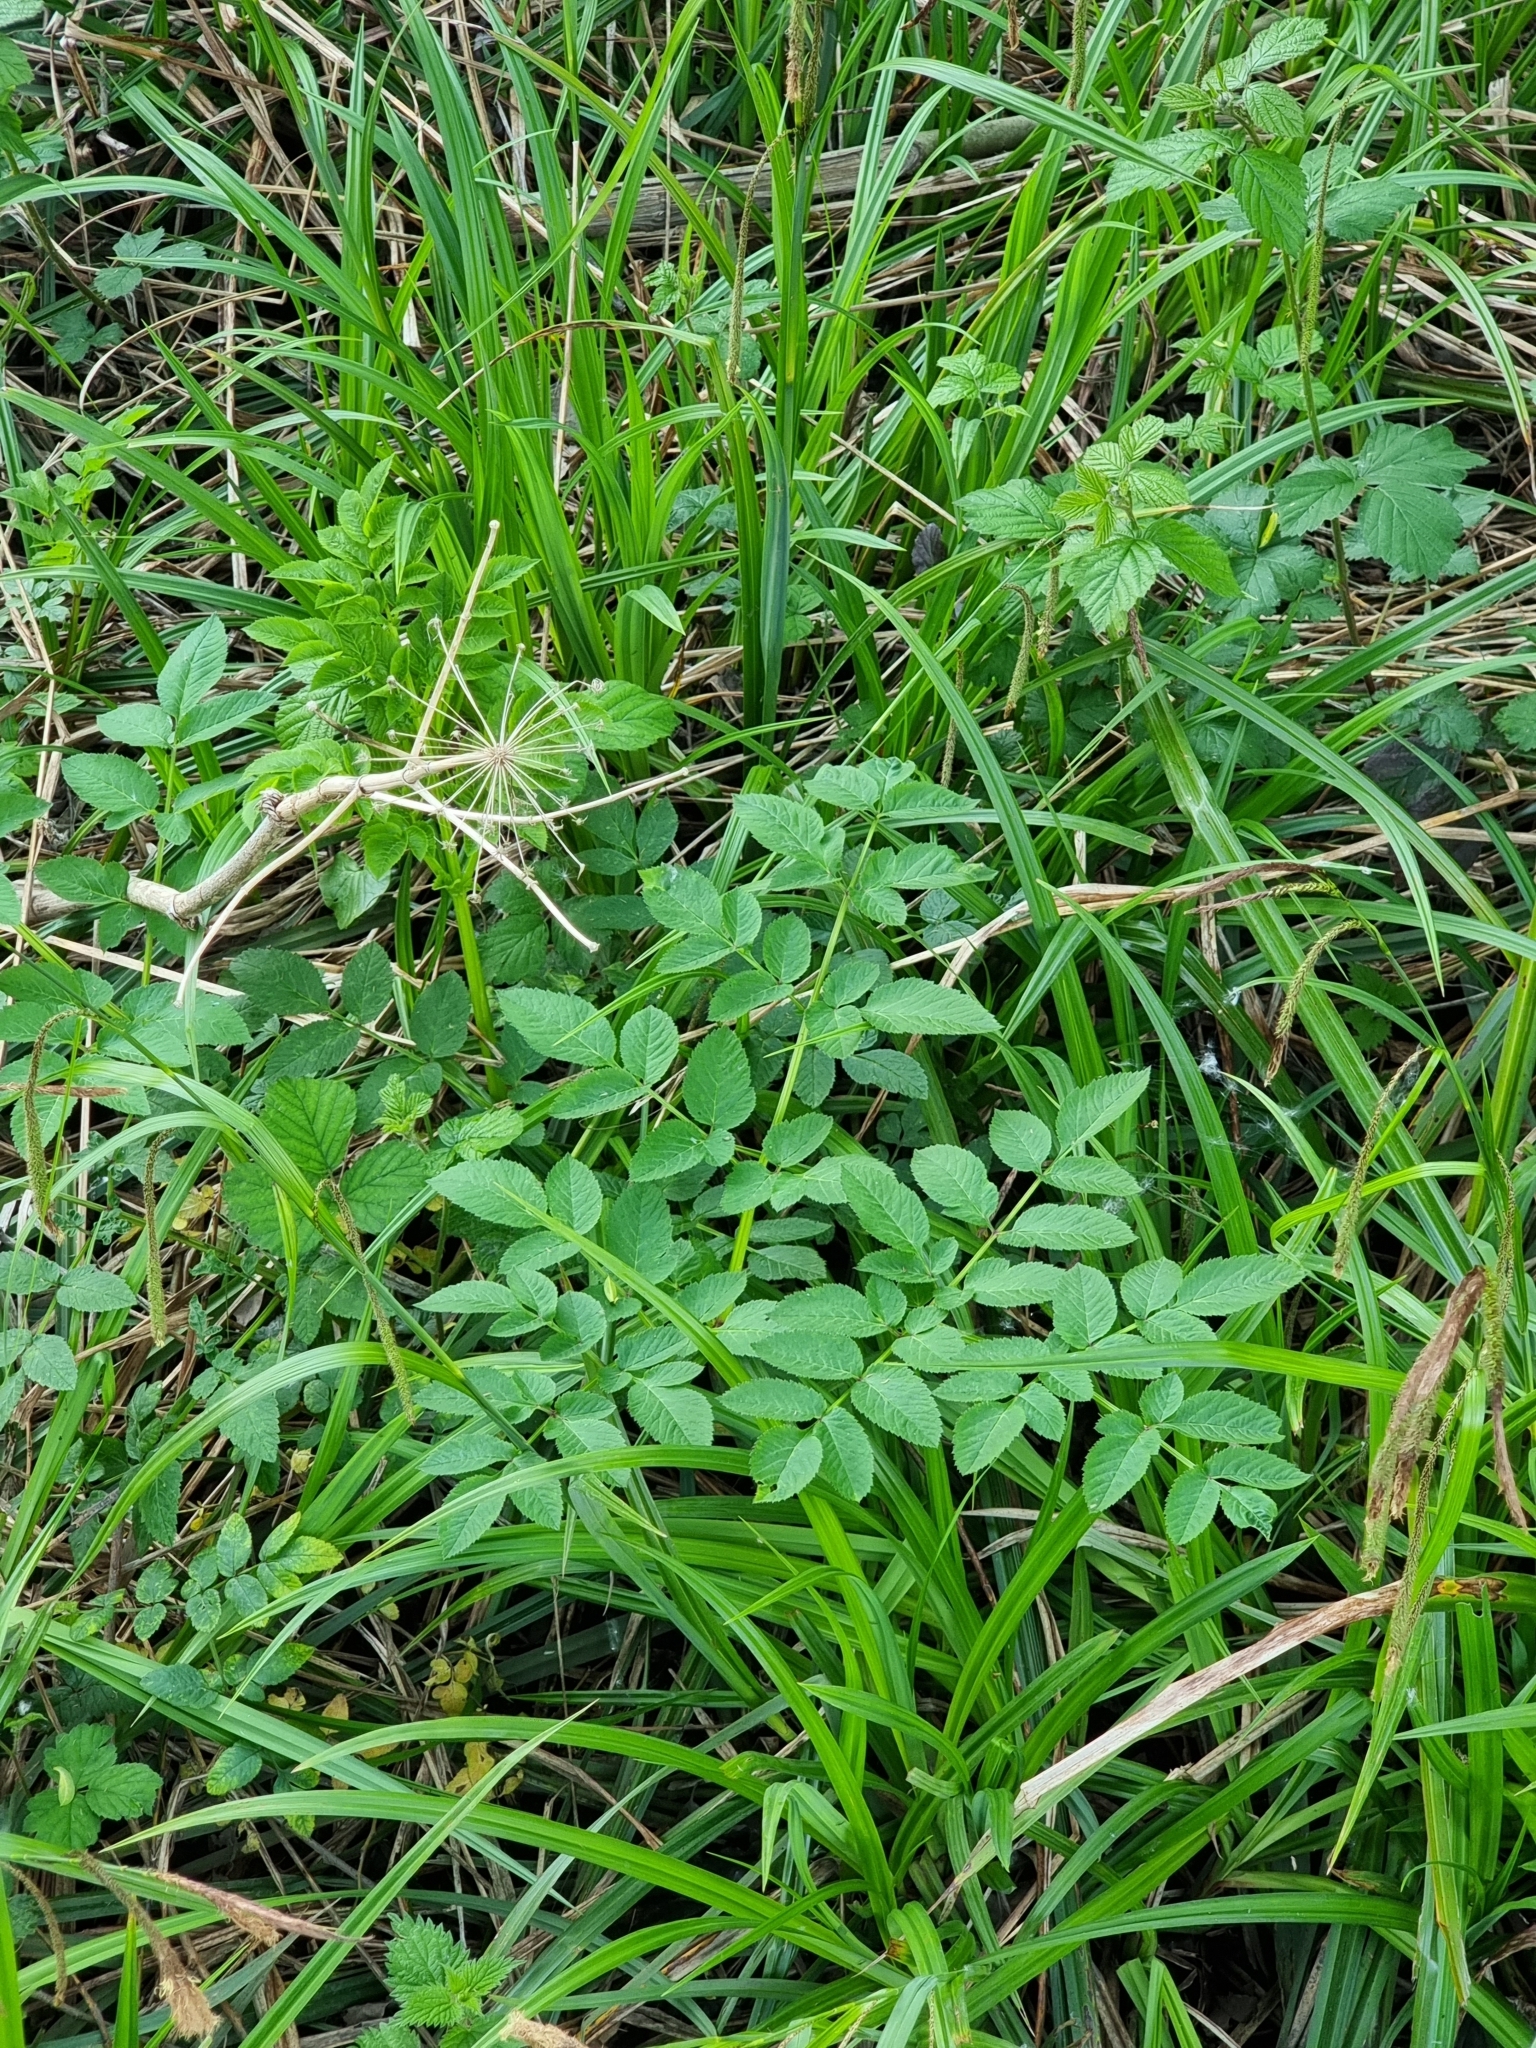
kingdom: Plantae
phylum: Tracheophyta
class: Magnoliopsida
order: Apiales
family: Apiaceae
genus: Angelica
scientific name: Angelica sylvestris
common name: Wild angelica
